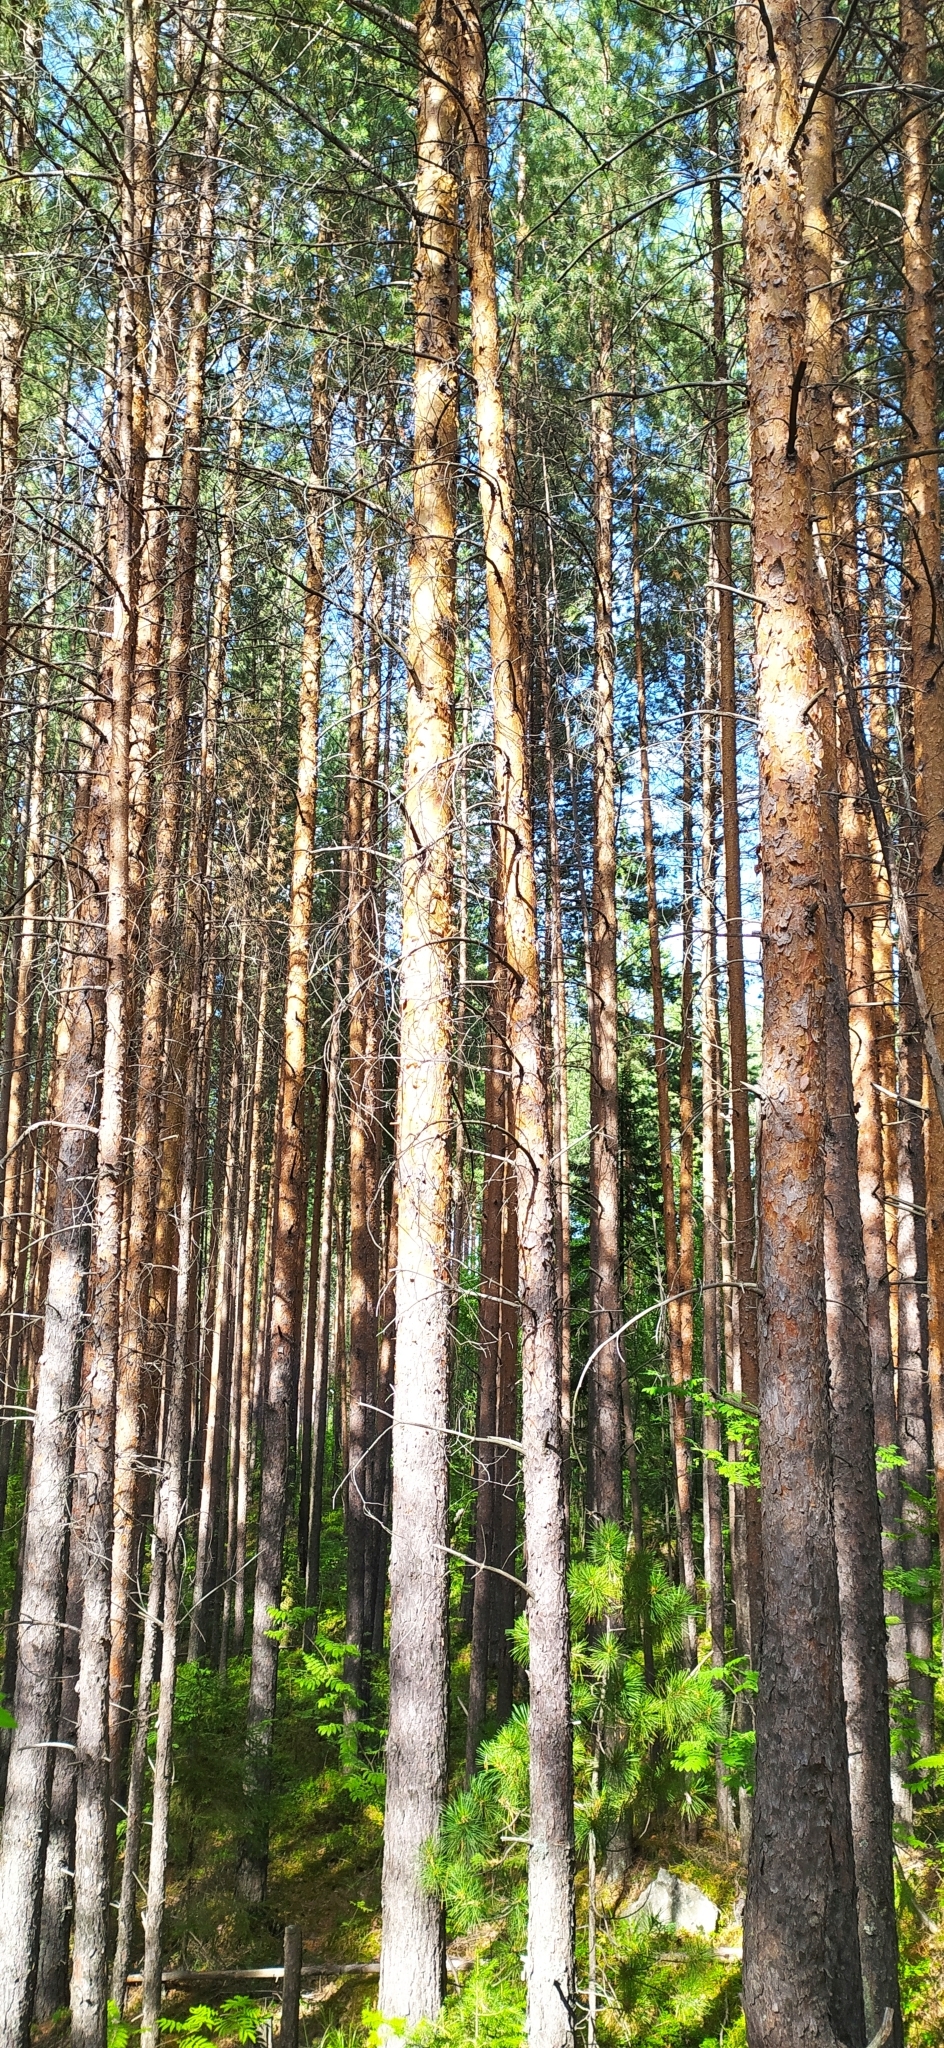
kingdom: Plantae
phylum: Tracheophyta
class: Pinopsida
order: Pinales
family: Pinaceae
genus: Pinus
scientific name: Pinus sylvestris
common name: Scots pine
